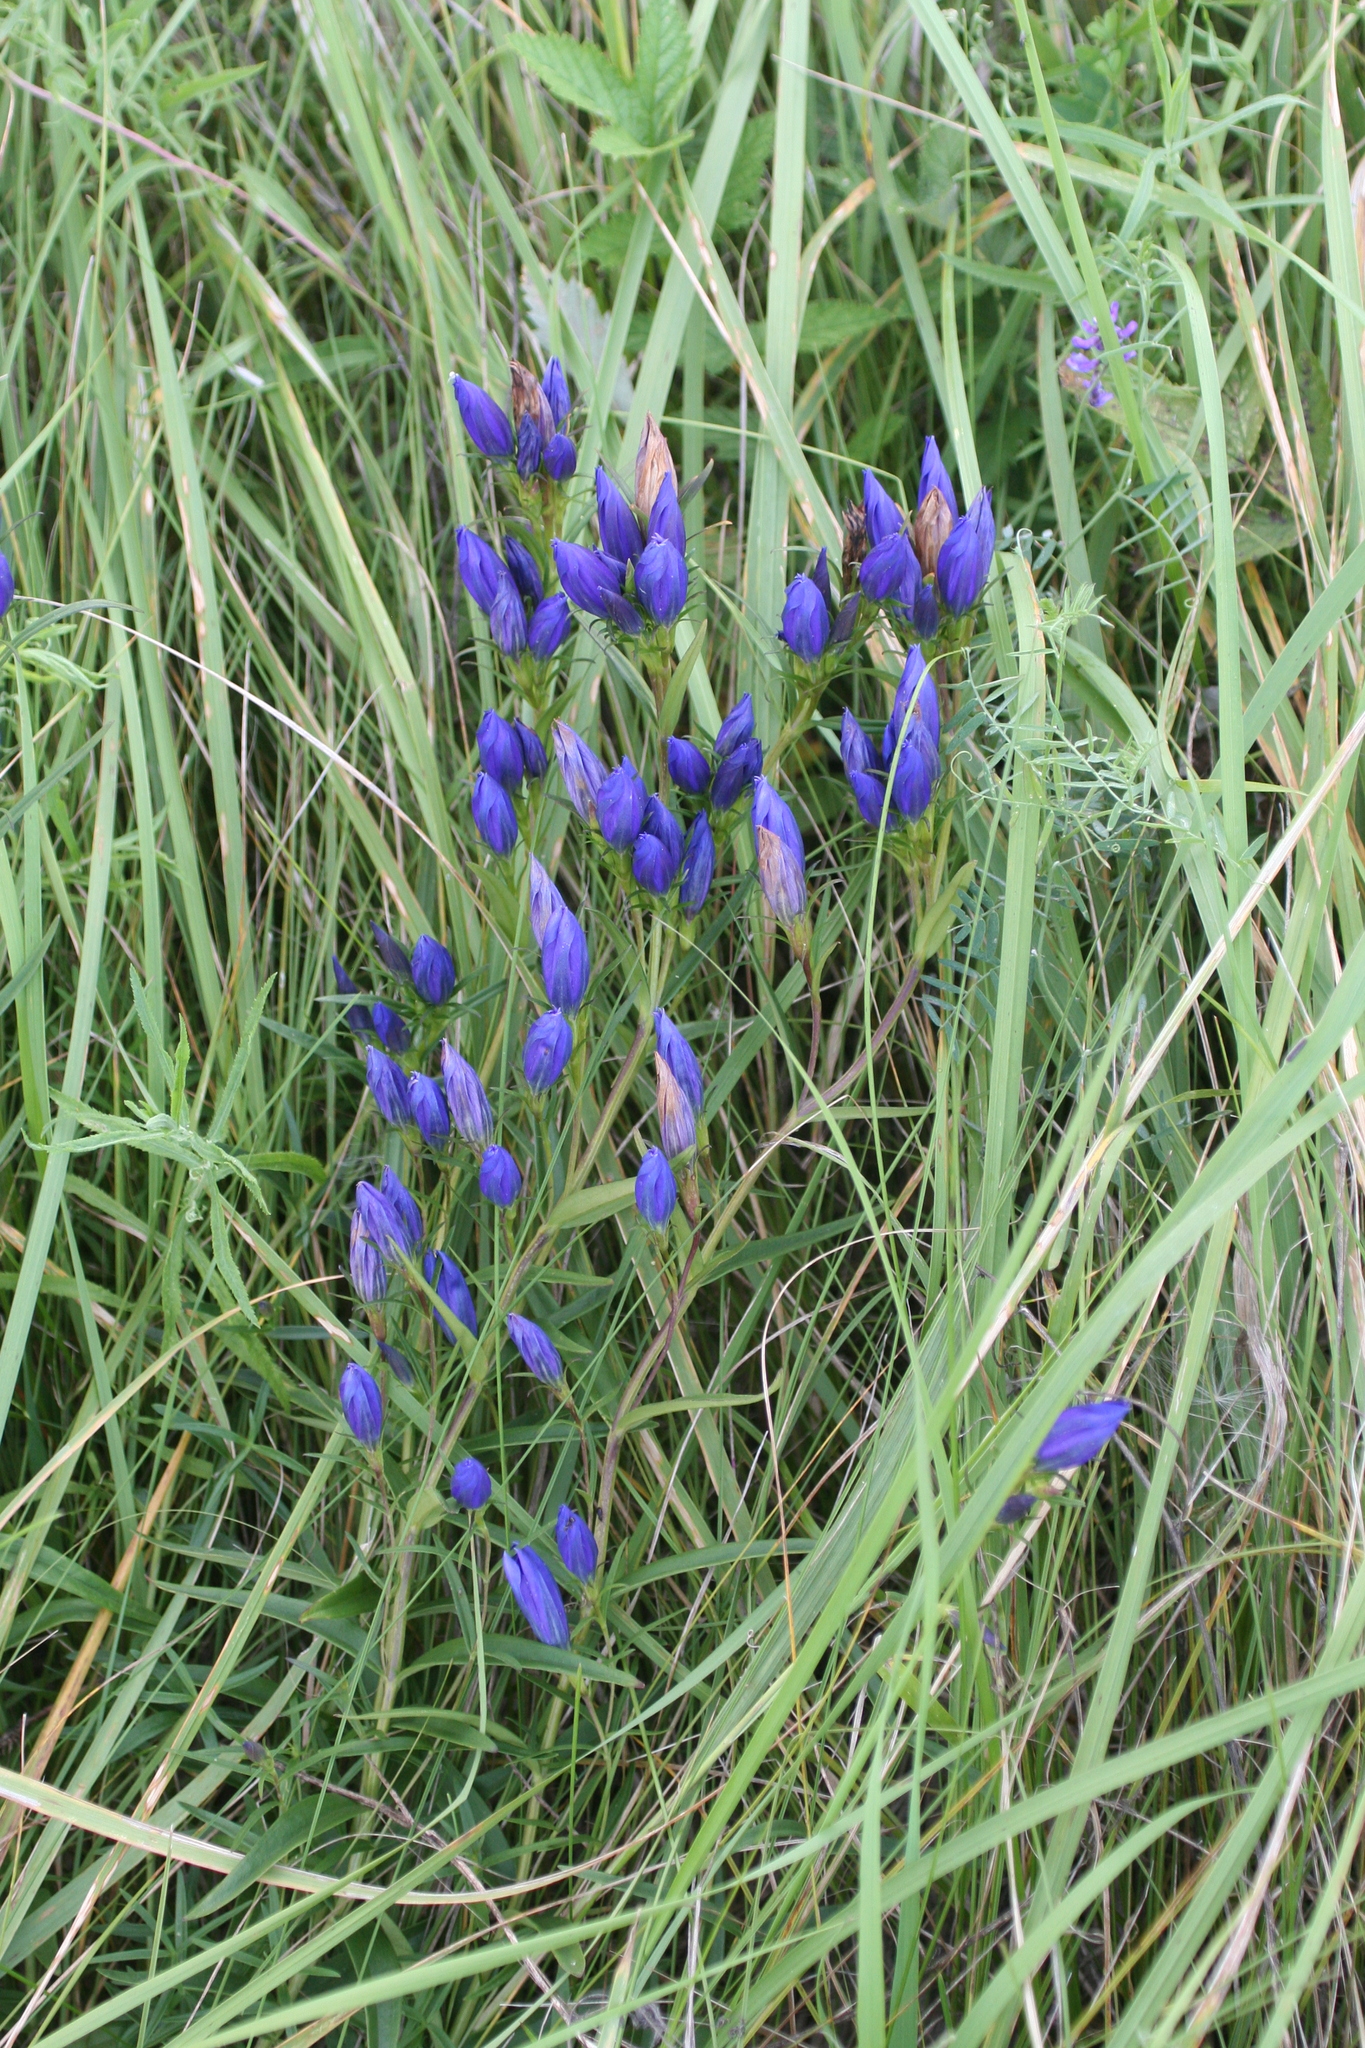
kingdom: Plantae
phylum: Tracheophyta
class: Magnoliopsida
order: Gentianales
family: Gentianaceae
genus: Gentiana
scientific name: Gentiana pneumonanthe
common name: Marsh gentian
